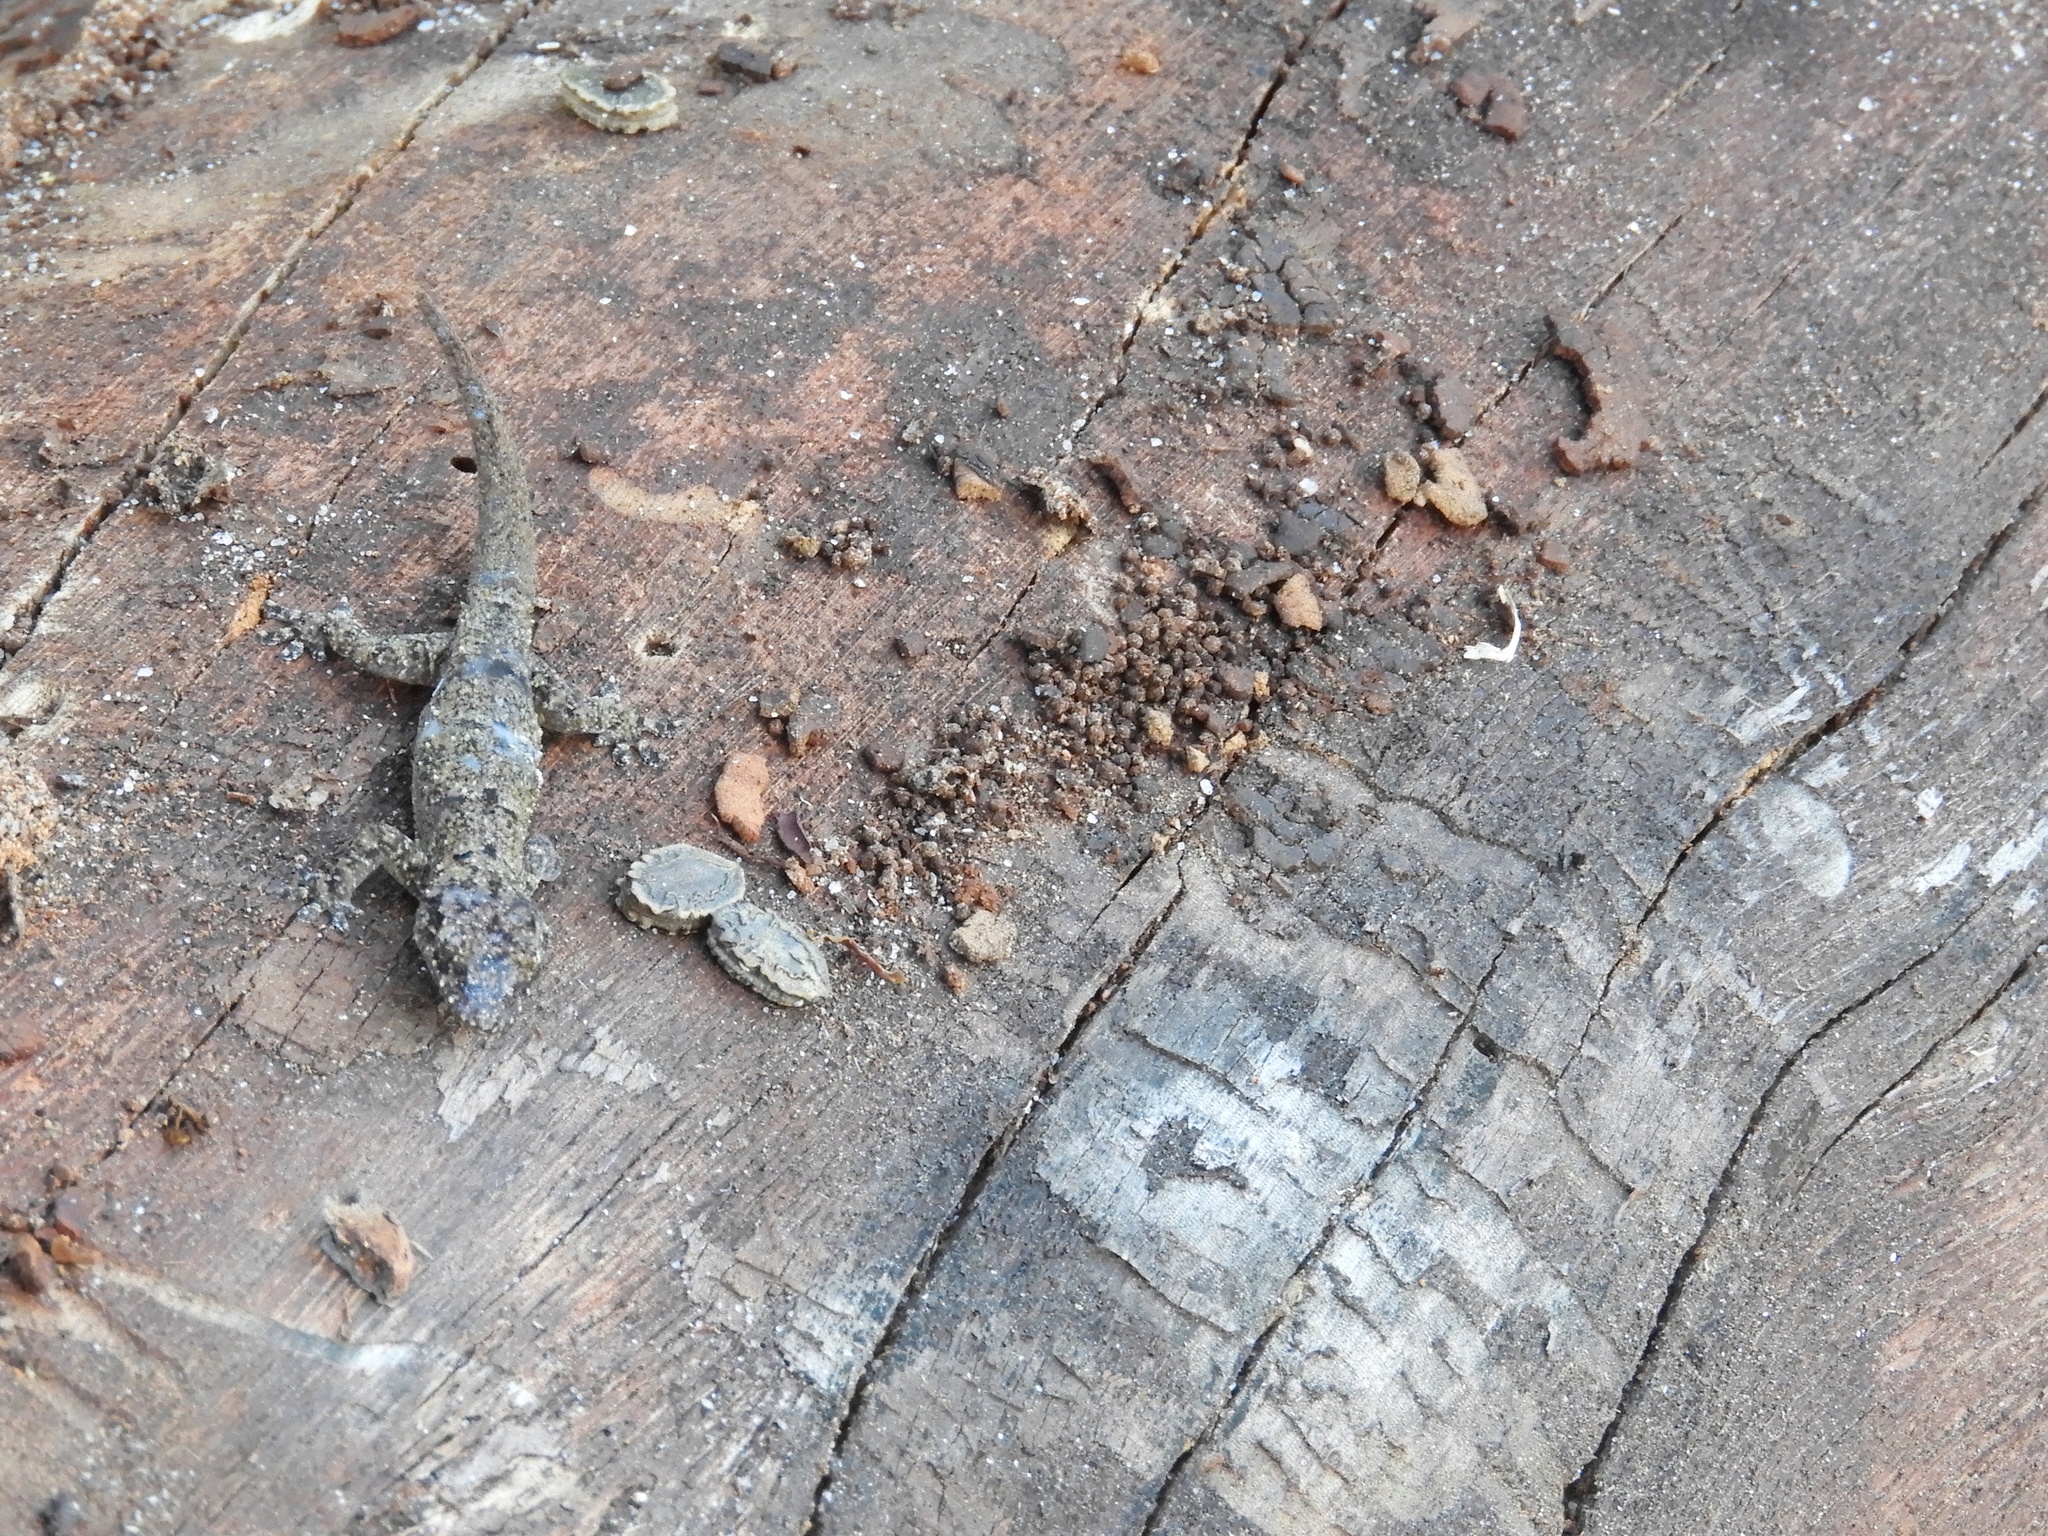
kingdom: Animalia
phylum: Chordata
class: Squamata
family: Gekkonidae
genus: Hemidactylus
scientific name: Hemidactylus mabouia
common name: House gecko
